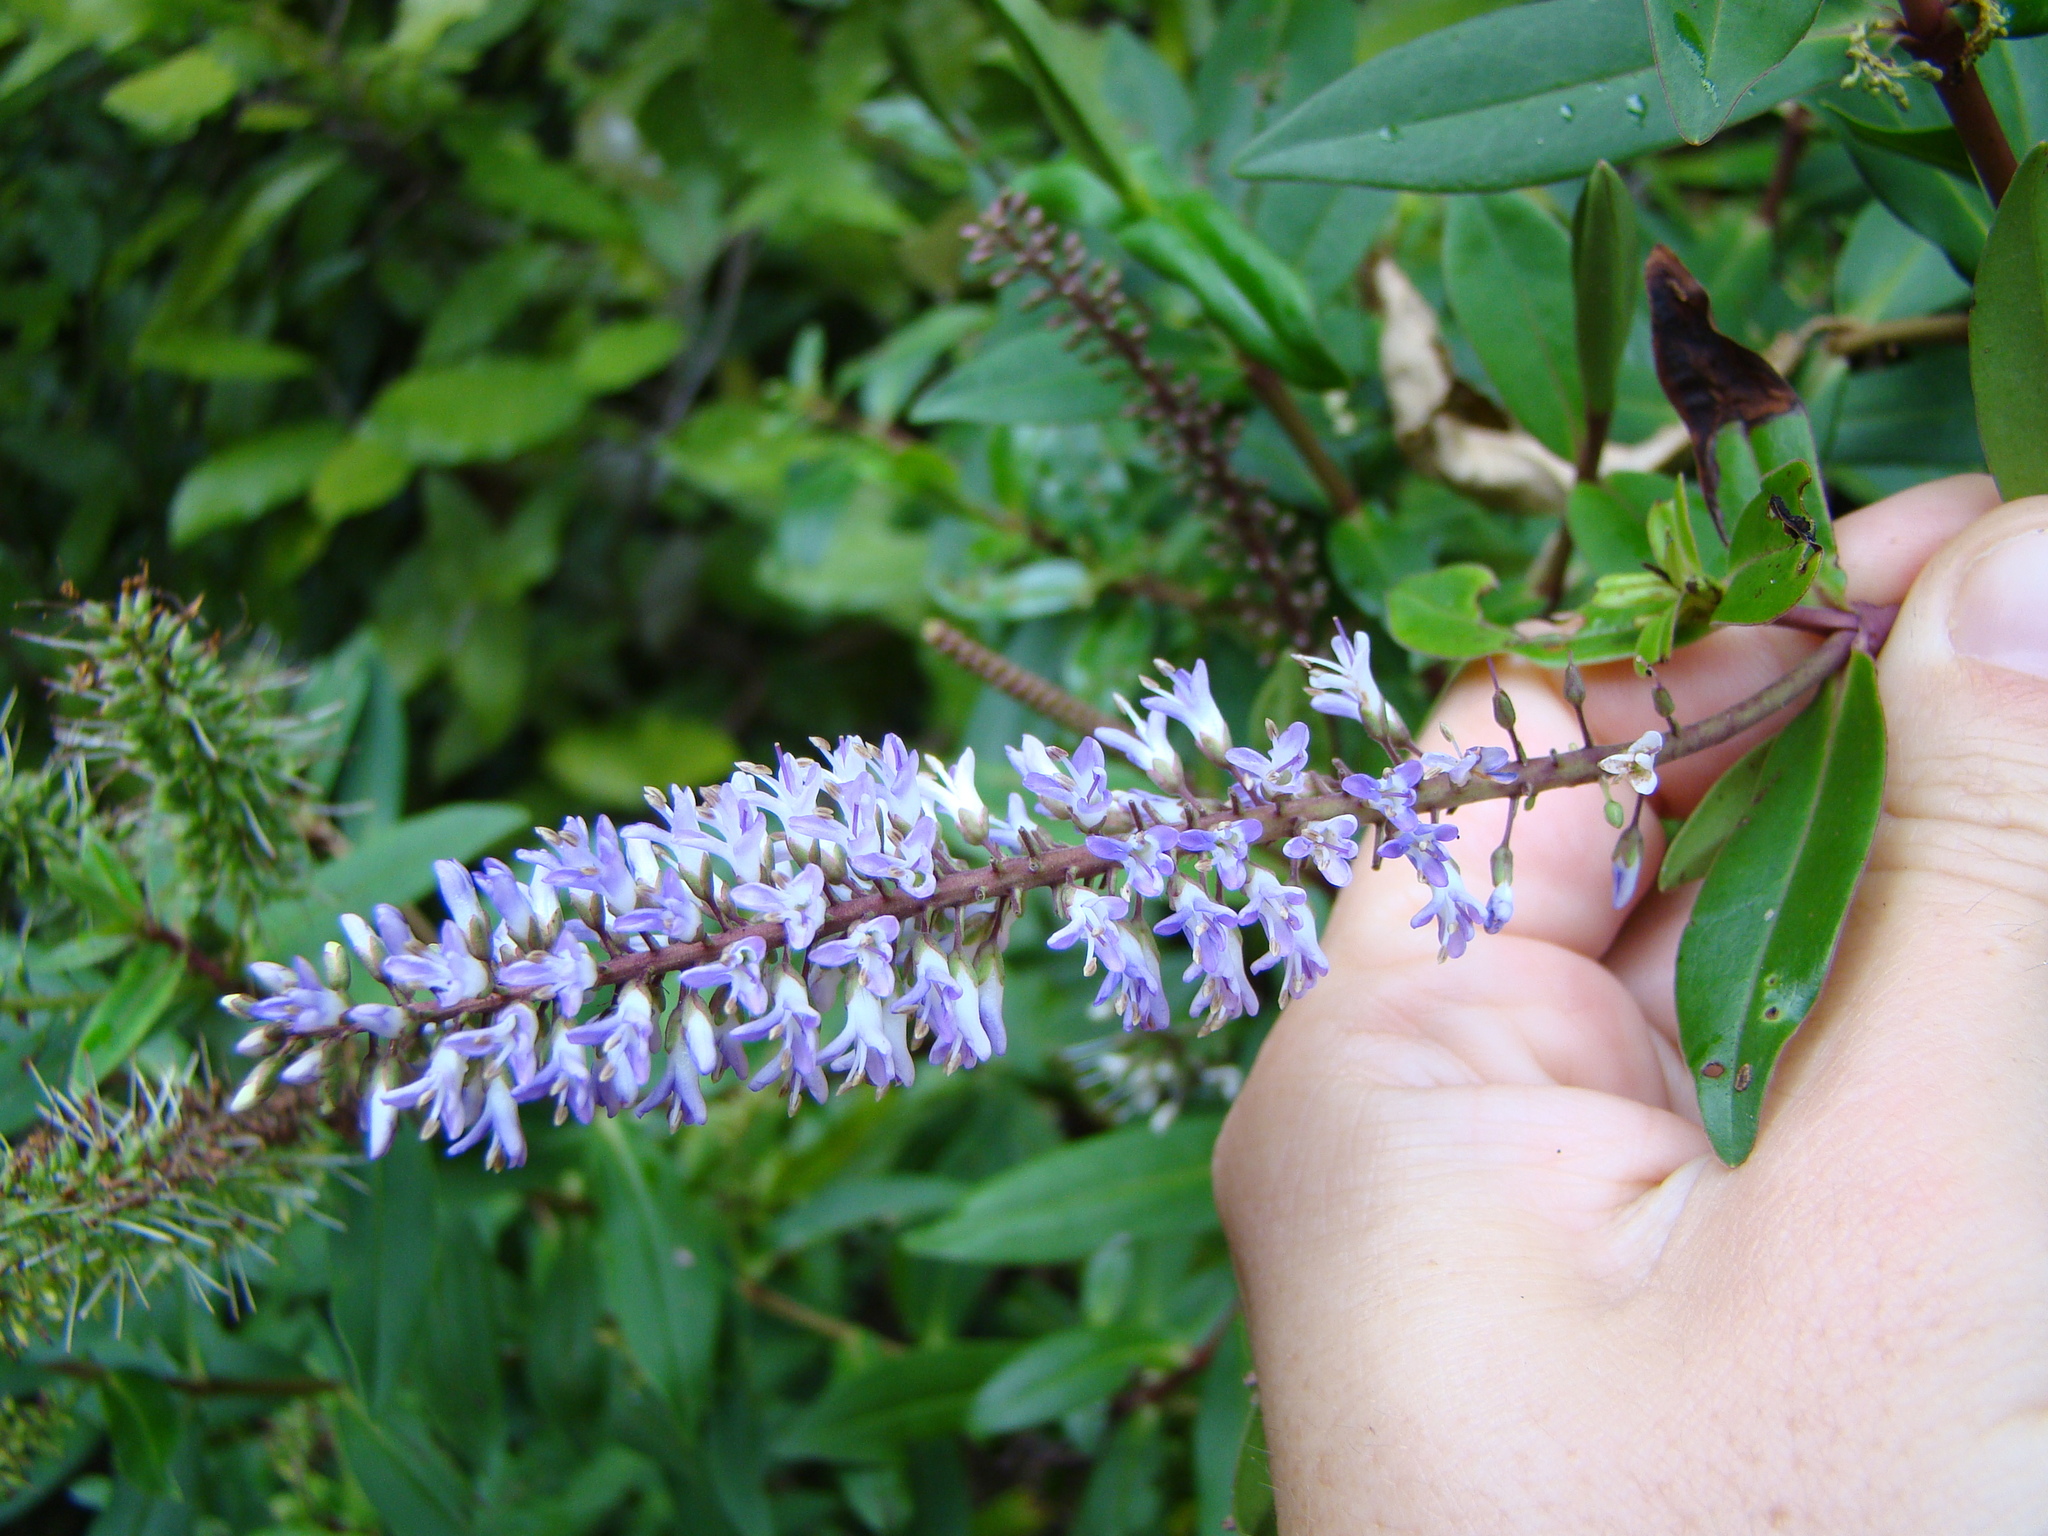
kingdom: Plantae
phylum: Tracheophyta
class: Magnoliopsida
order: Lamiales
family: Plantaginaceae
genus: Veronica
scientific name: Veronica stricta
